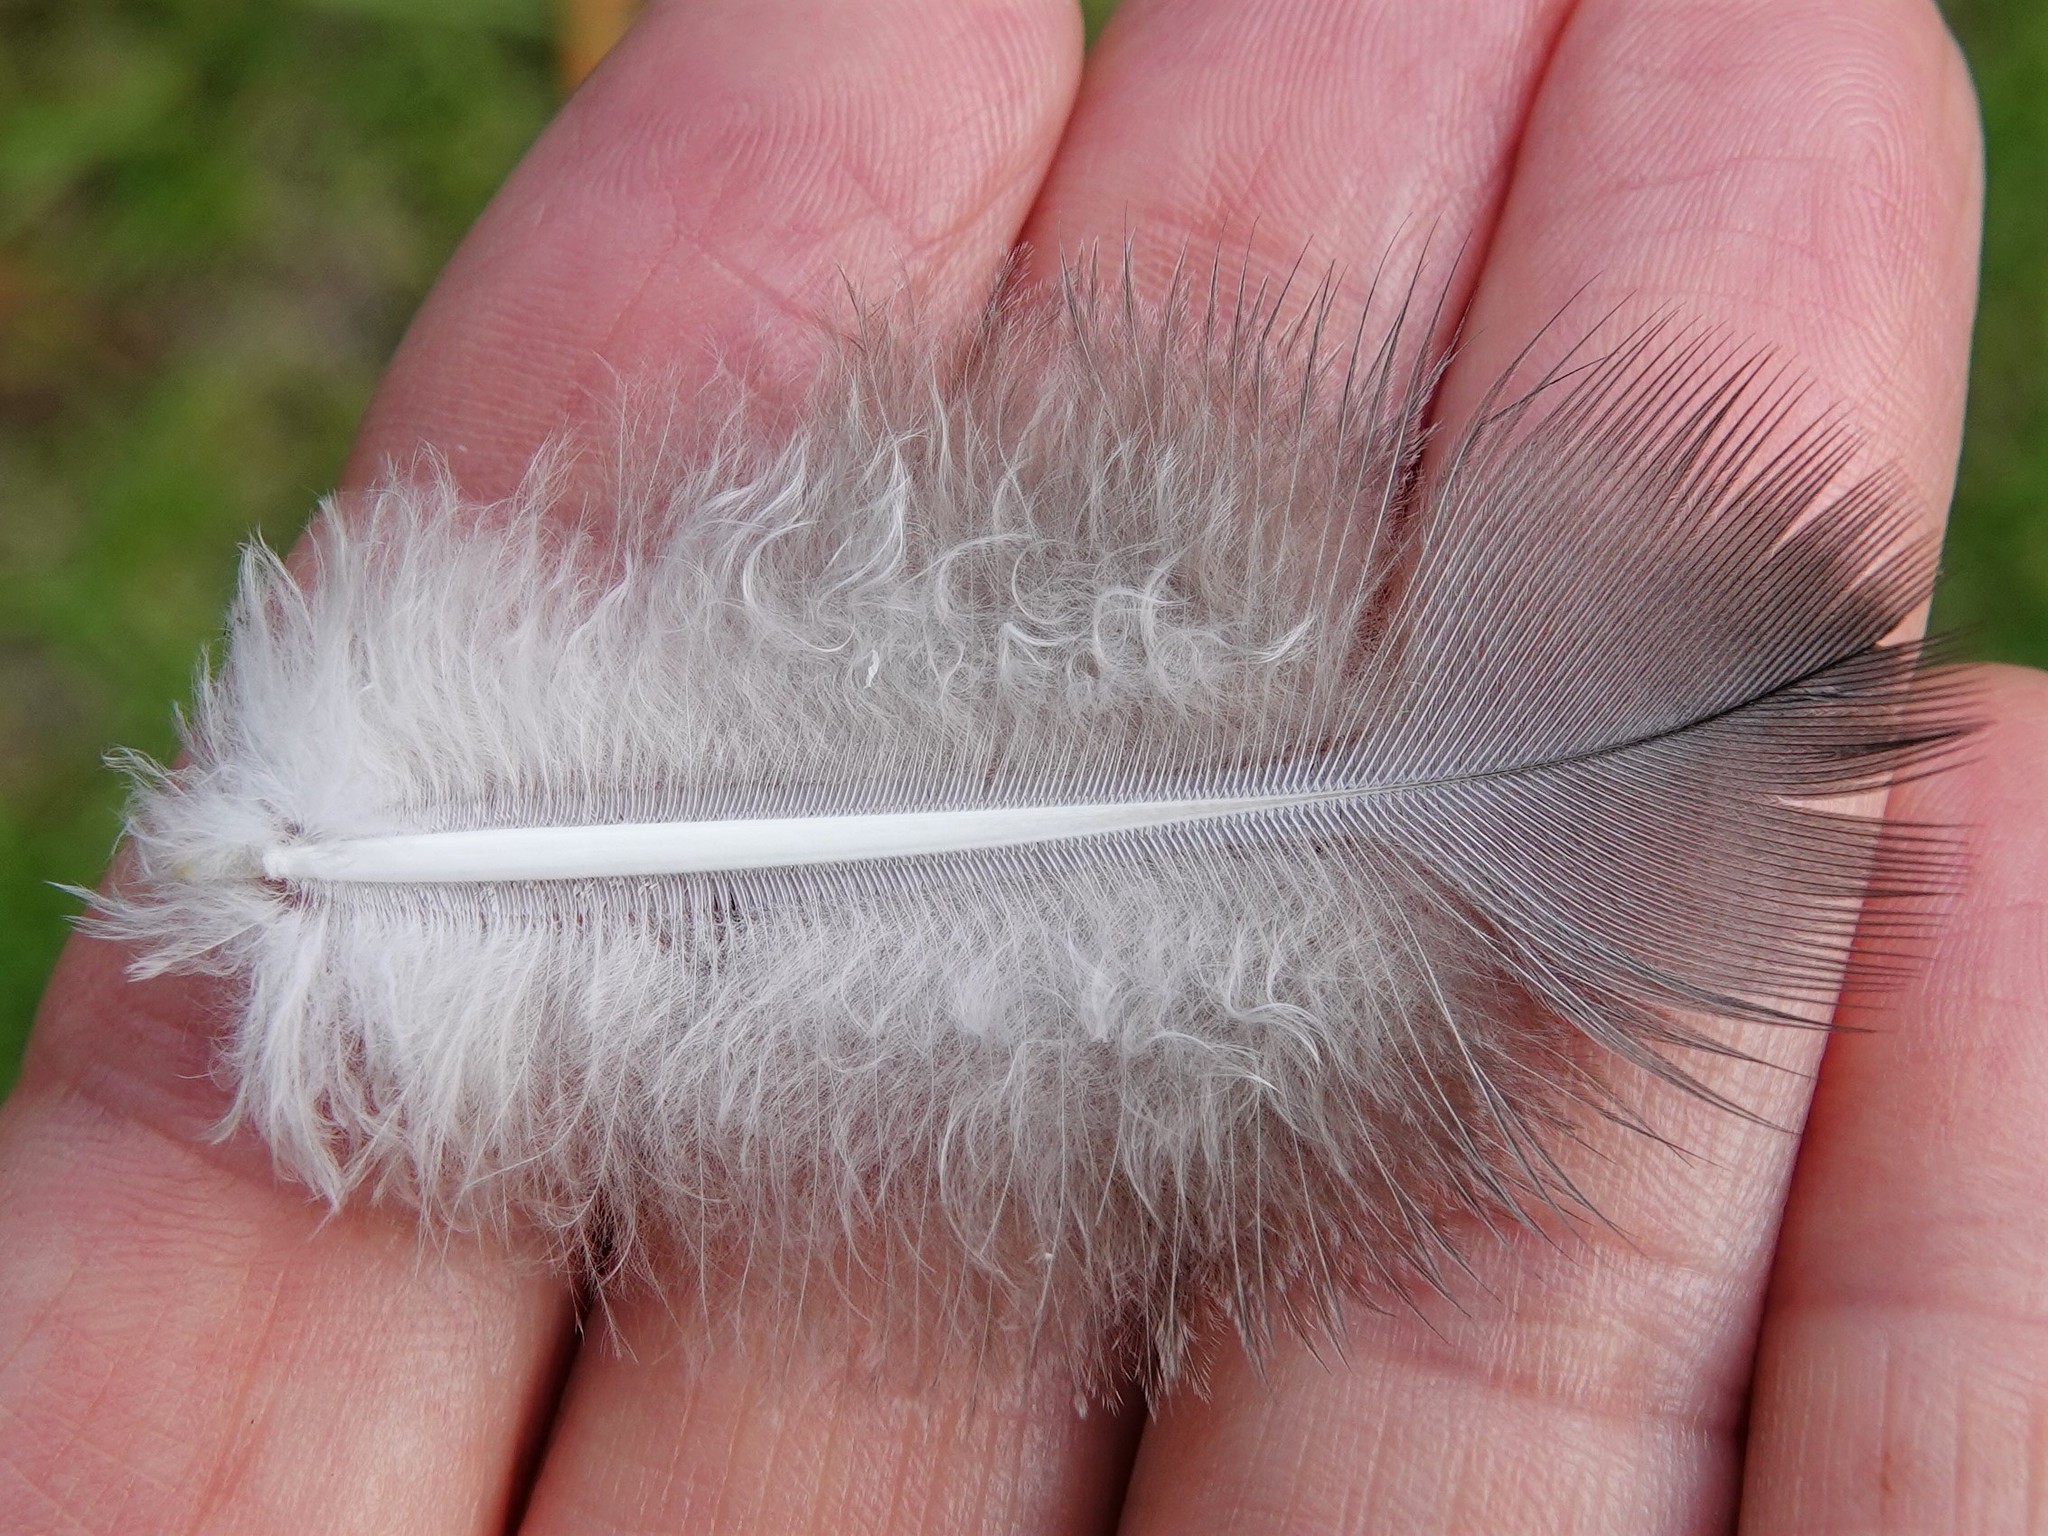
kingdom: Animalia
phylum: Chordata
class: Aves
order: Columbiformes
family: Columbidae
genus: Hemiphaga
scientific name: Hemiphaga novaeseelandiae
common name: New zealand pigeon
